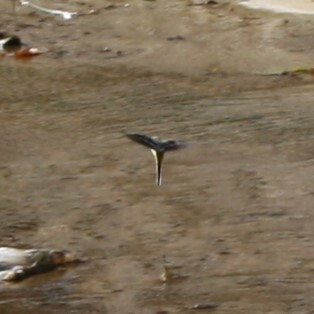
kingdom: Animalia
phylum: Chordata
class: Aves
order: Passeriformes
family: Motacillidae
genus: Motacilla
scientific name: Motacilla cinerea
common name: Grey wagtail
